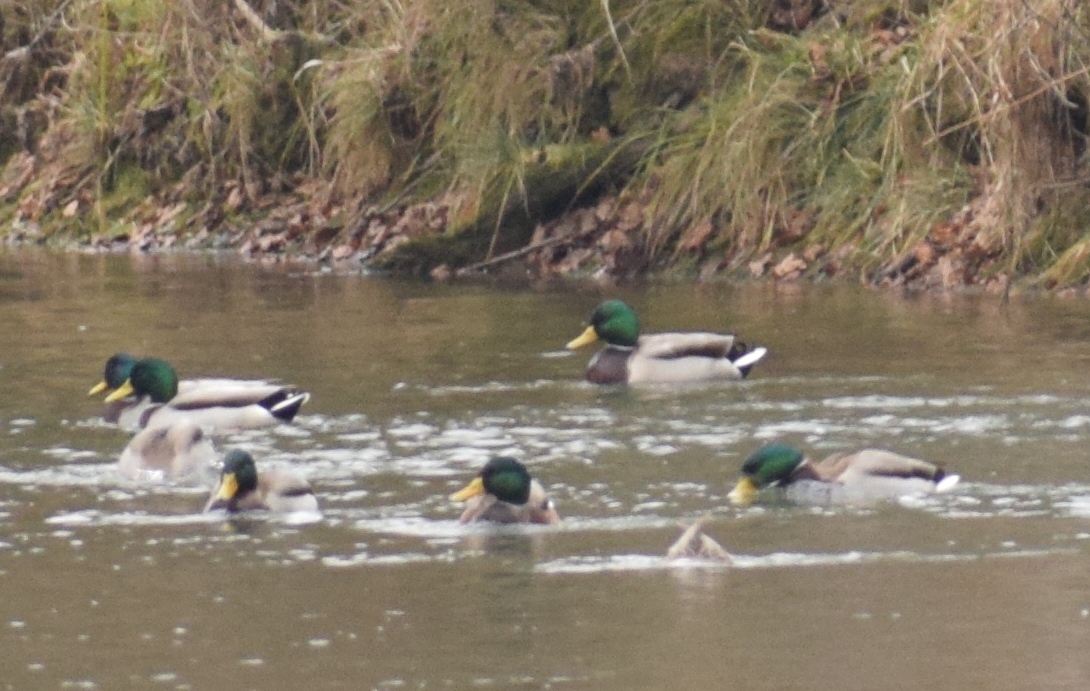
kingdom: Animalia
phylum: Chordata
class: Aves
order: Anseriformes
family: Anatidae
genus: Anas
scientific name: Anas platyrhynchos
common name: Mallard
